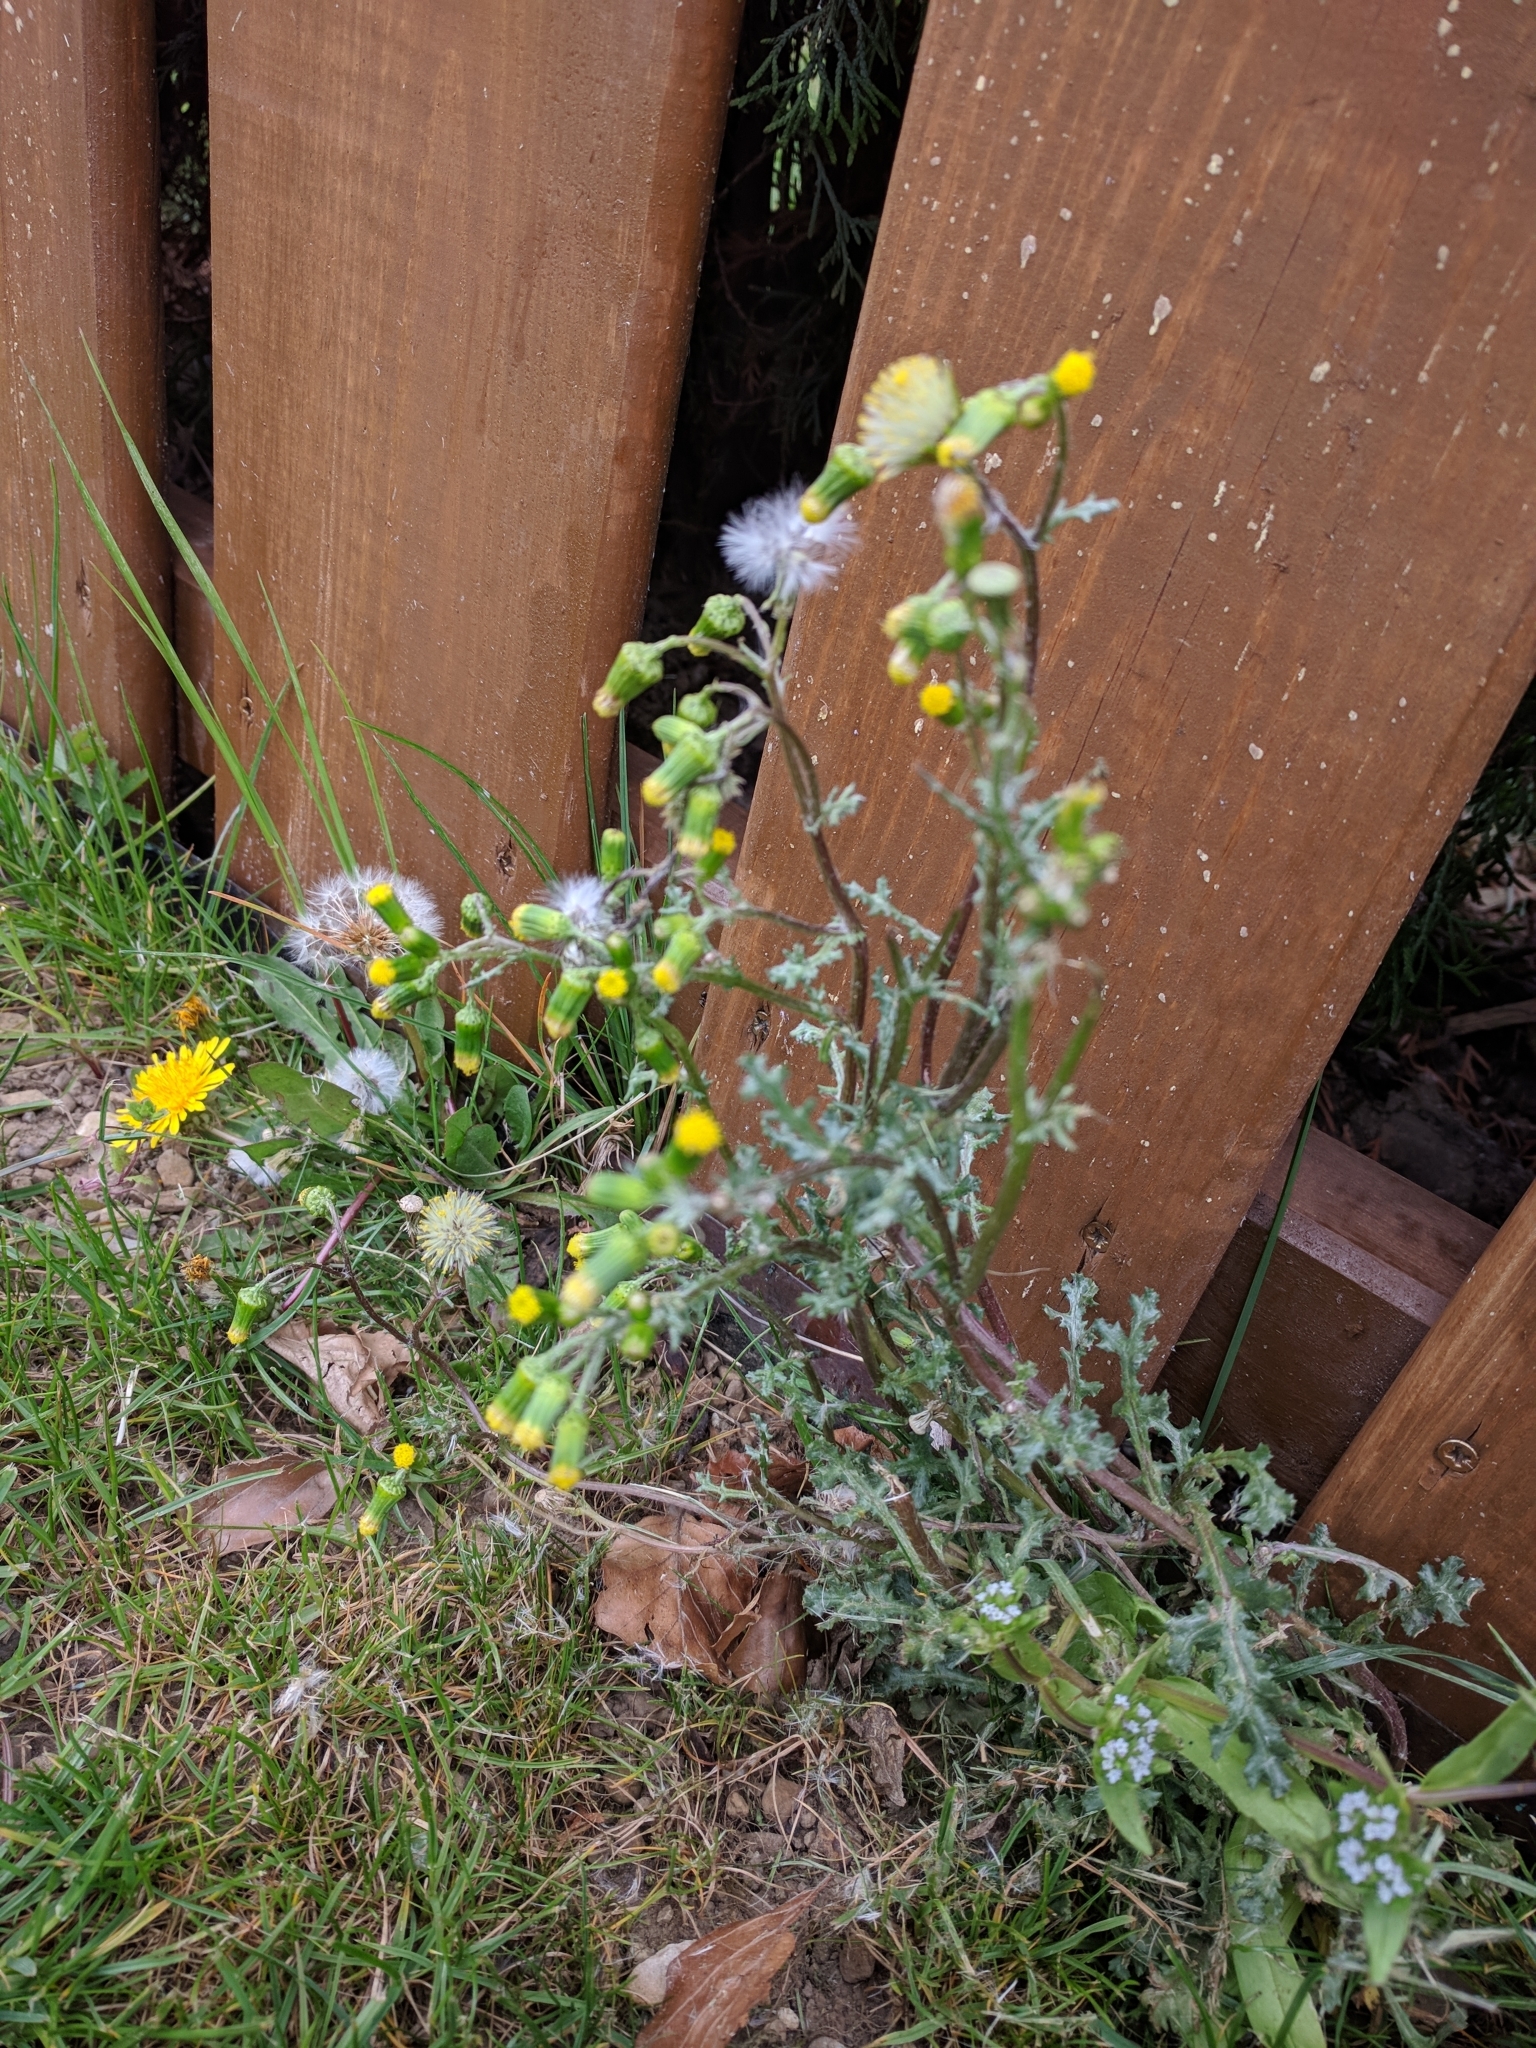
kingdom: Plantae
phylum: Tracheophyta
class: Magnoliopsida
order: Asterales
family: Asteraceae
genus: Senecio
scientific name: Senecio vulgaris
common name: Old-man-in-the-spring
